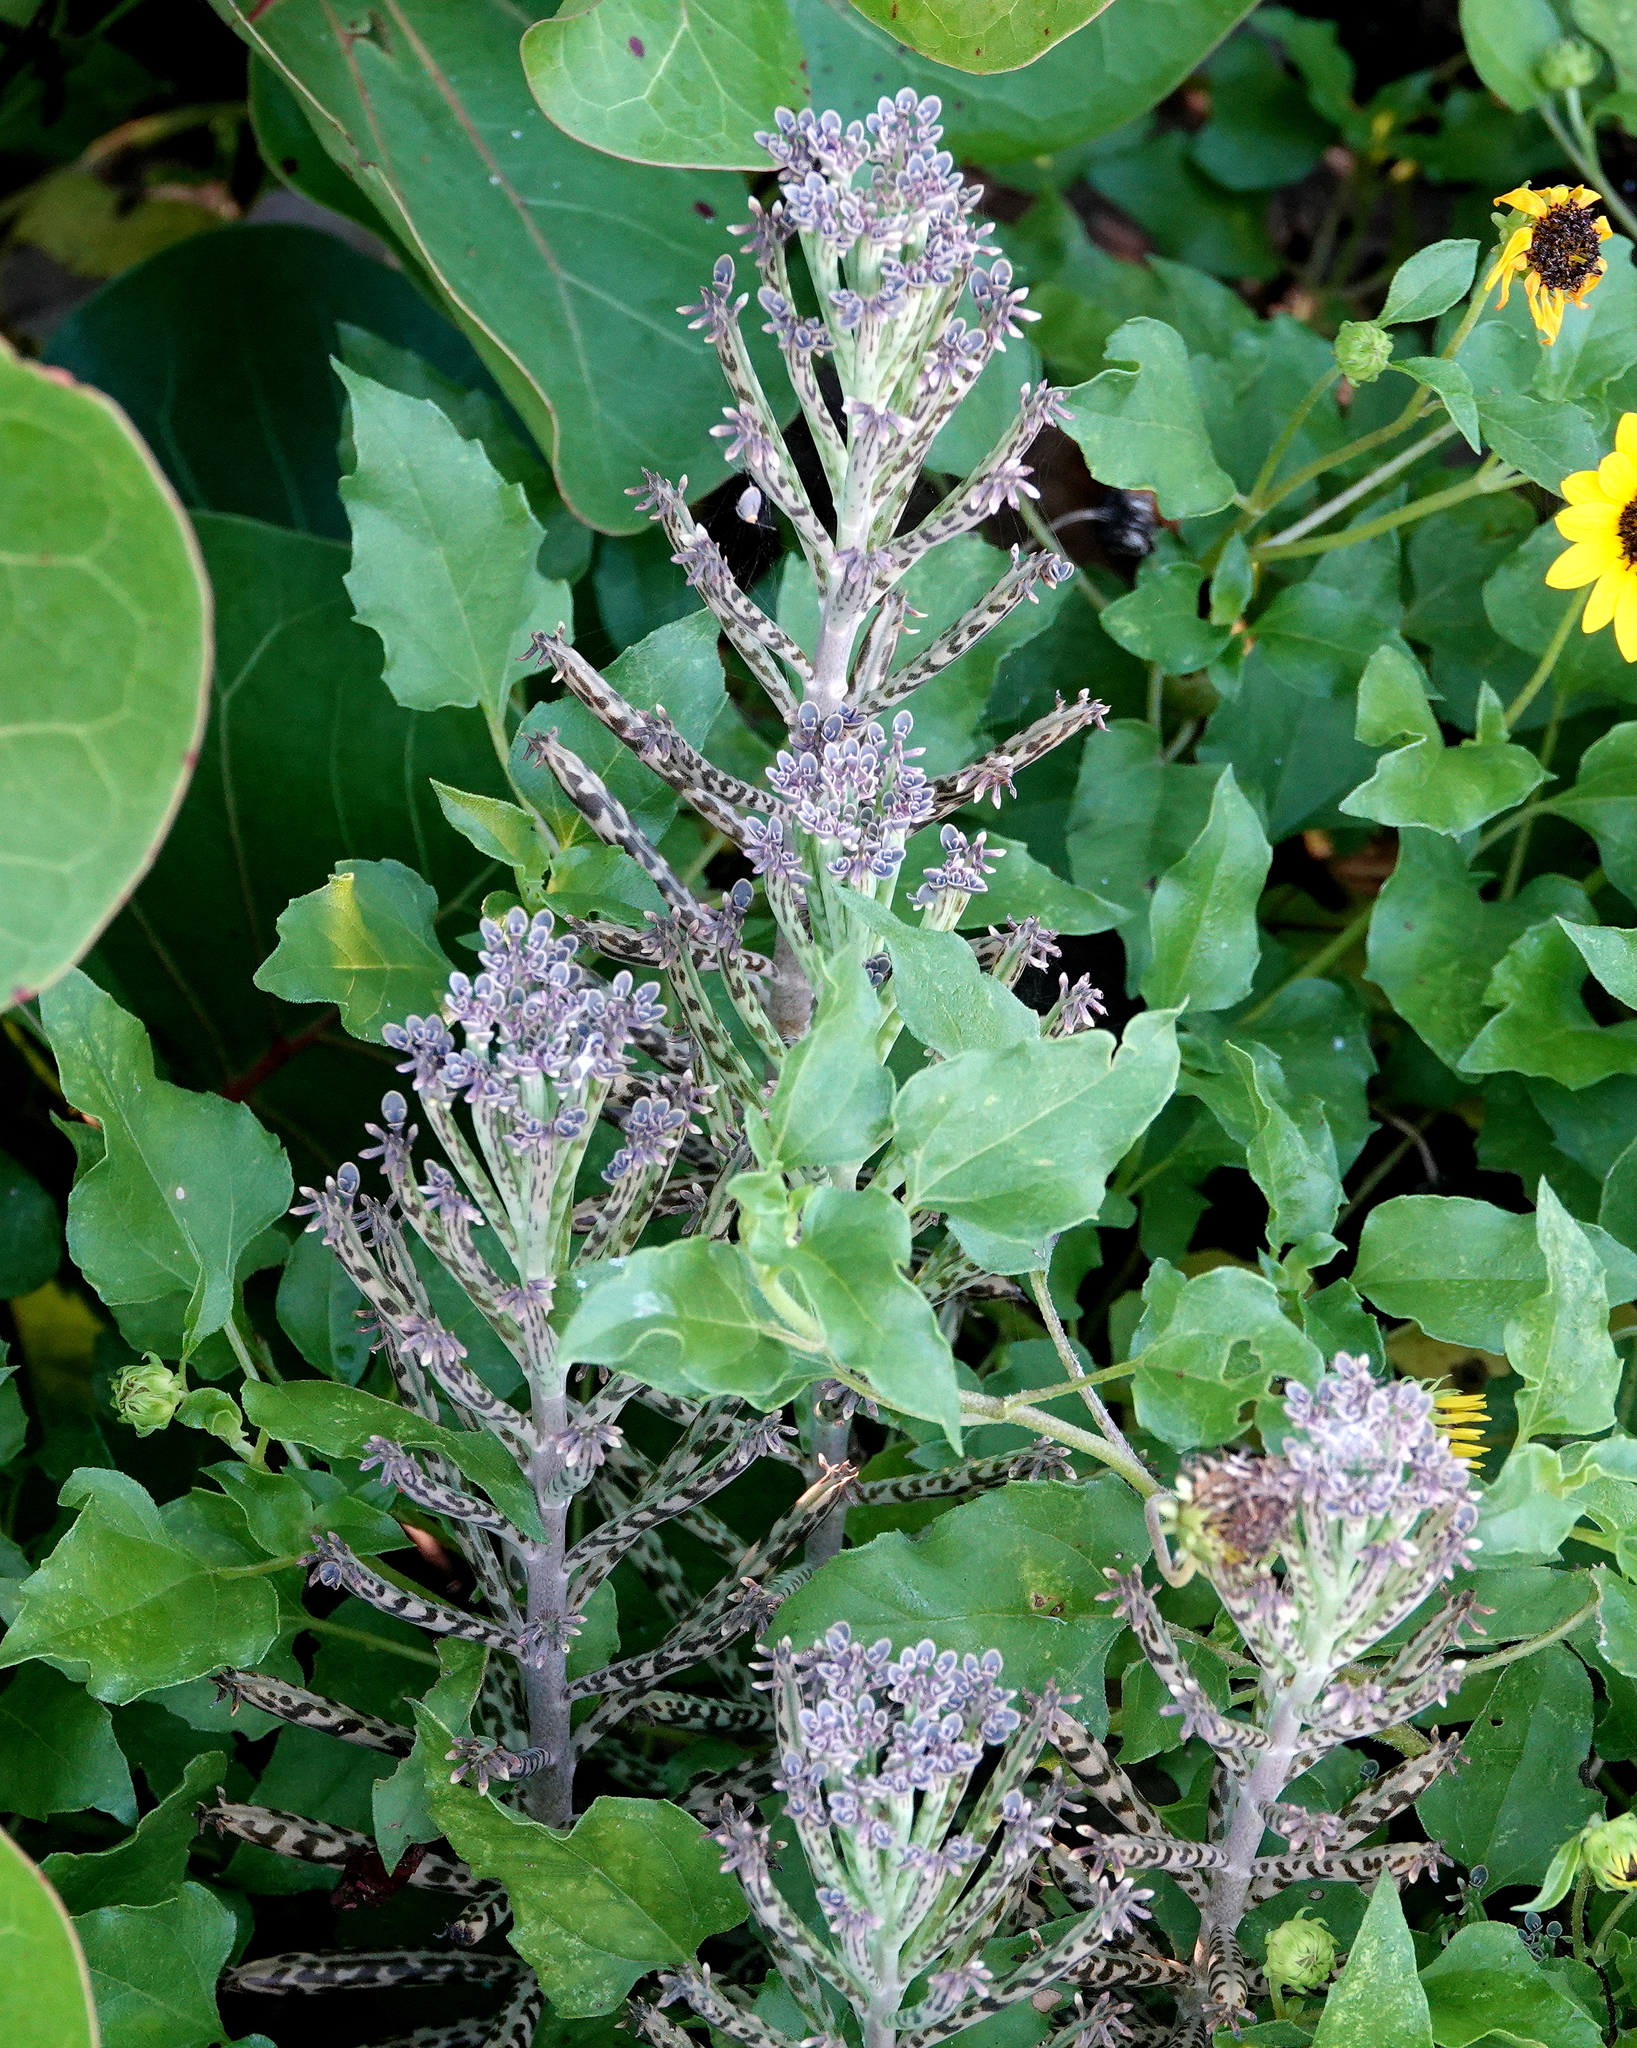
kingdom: Plantae
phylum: Tracheophyta
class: Magnoliopsida
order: Saxifragales
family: Crassulaceae
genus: Kalanchoe
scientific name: Kalanchoe delagoensis
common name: Chandelier plant
